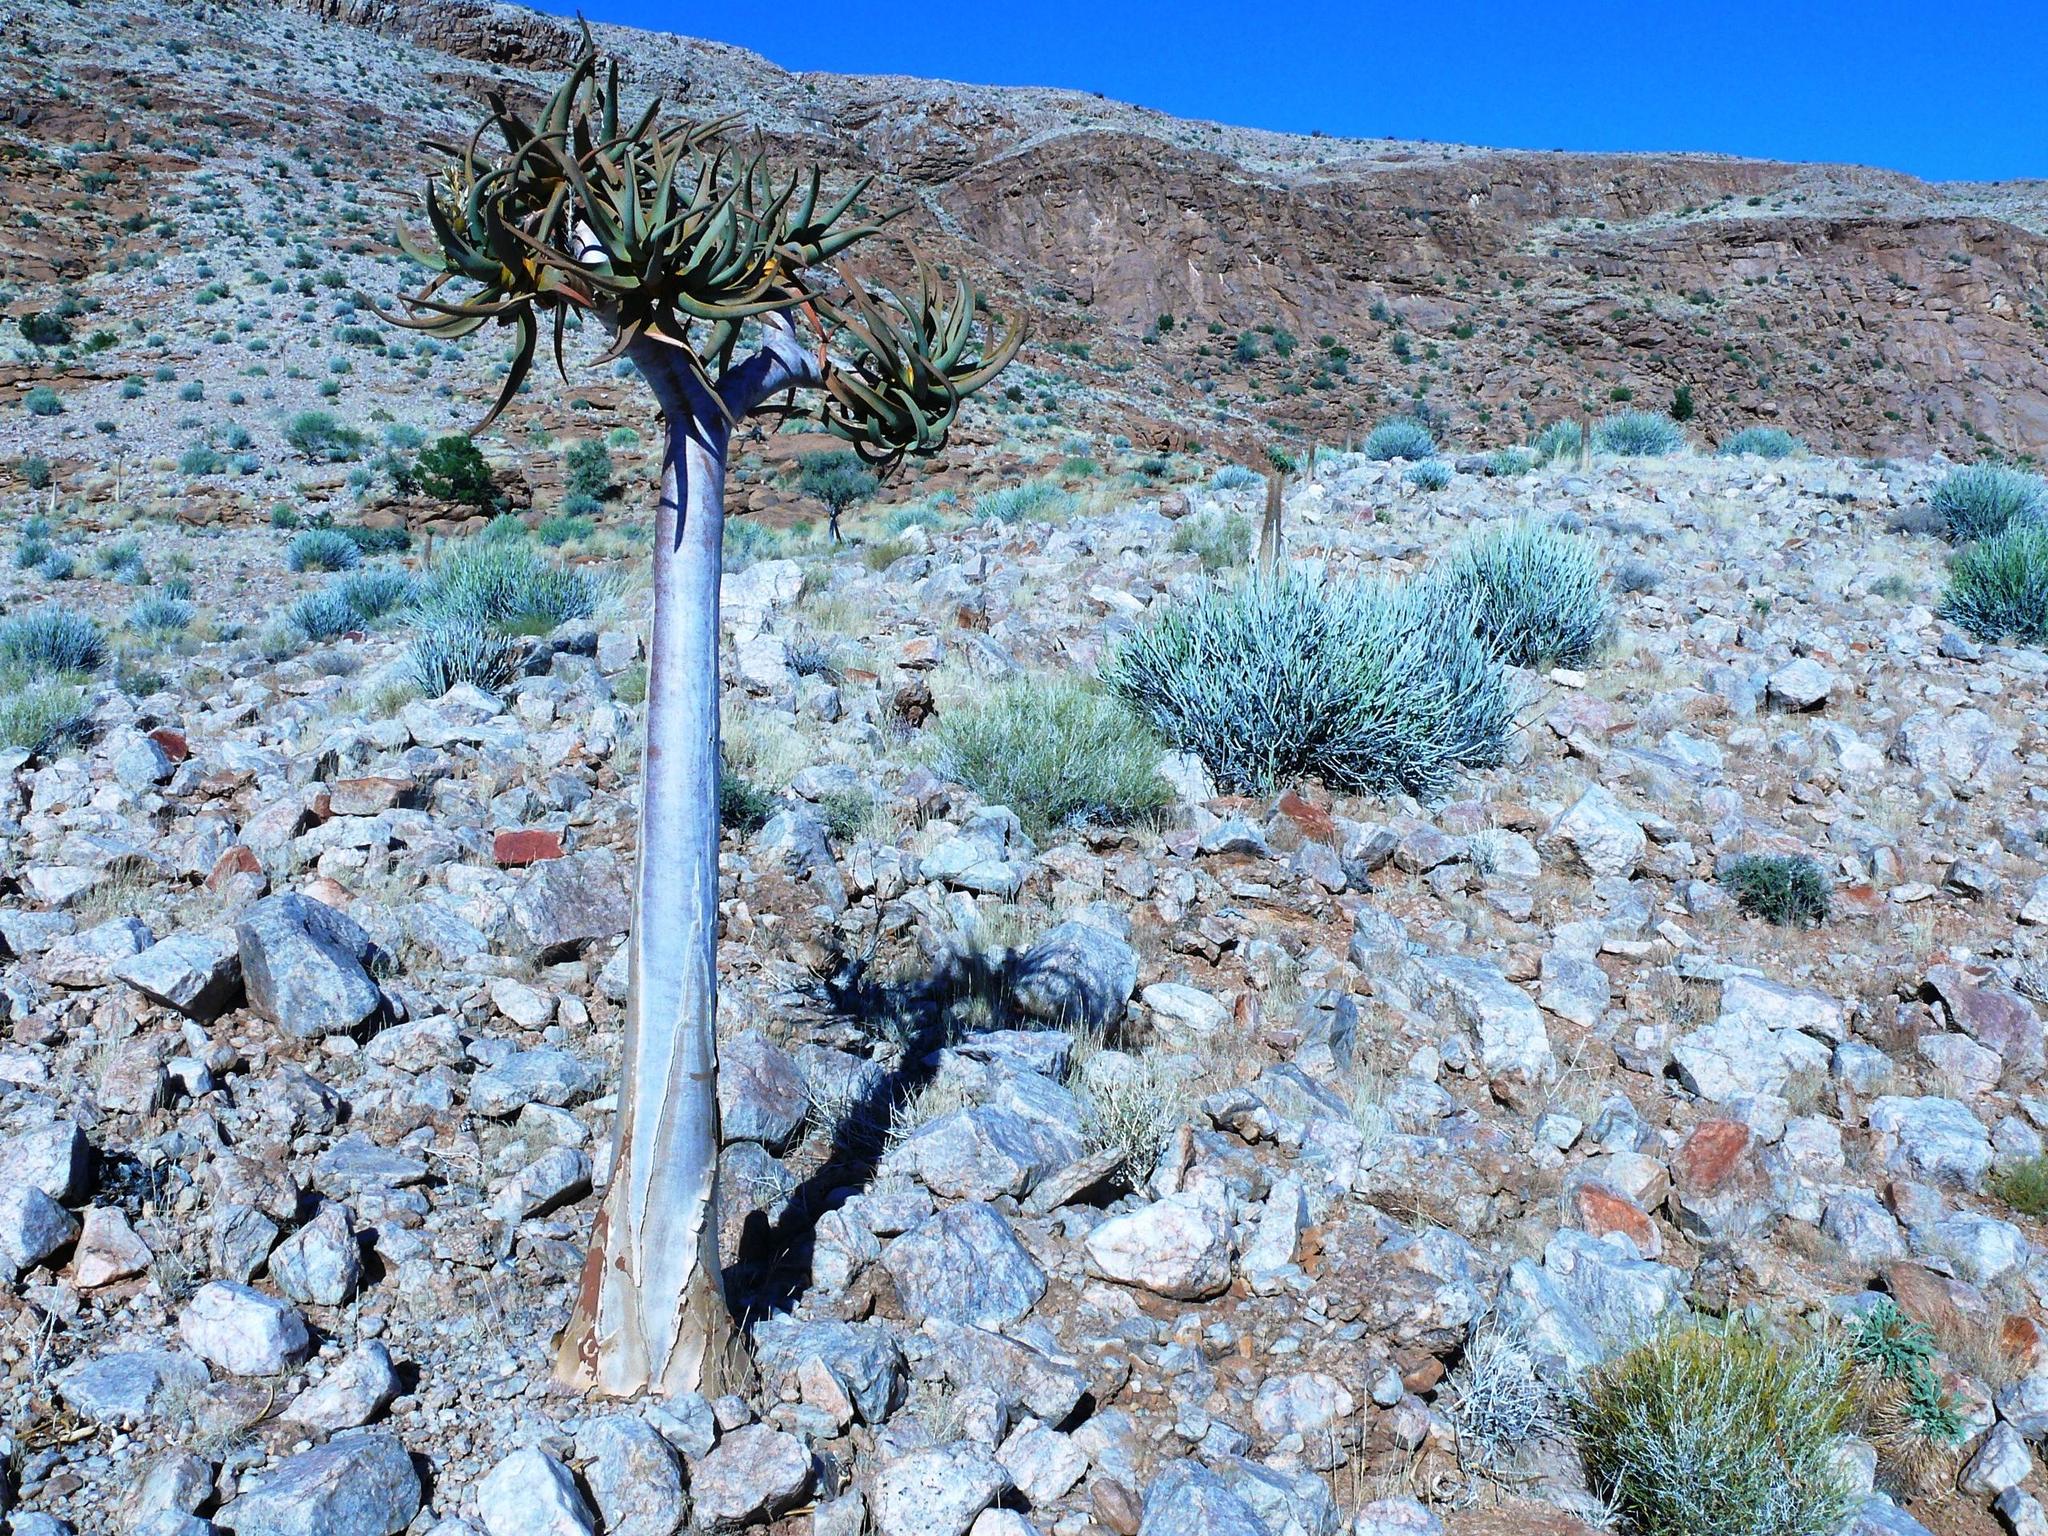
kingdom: Plantae
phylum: Tracheophyta
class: Liliopsida
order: Asparagales
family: Asphodelaceae
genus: Aloidendron
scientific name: Aloidendron dichotomum
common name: Quiver tree
